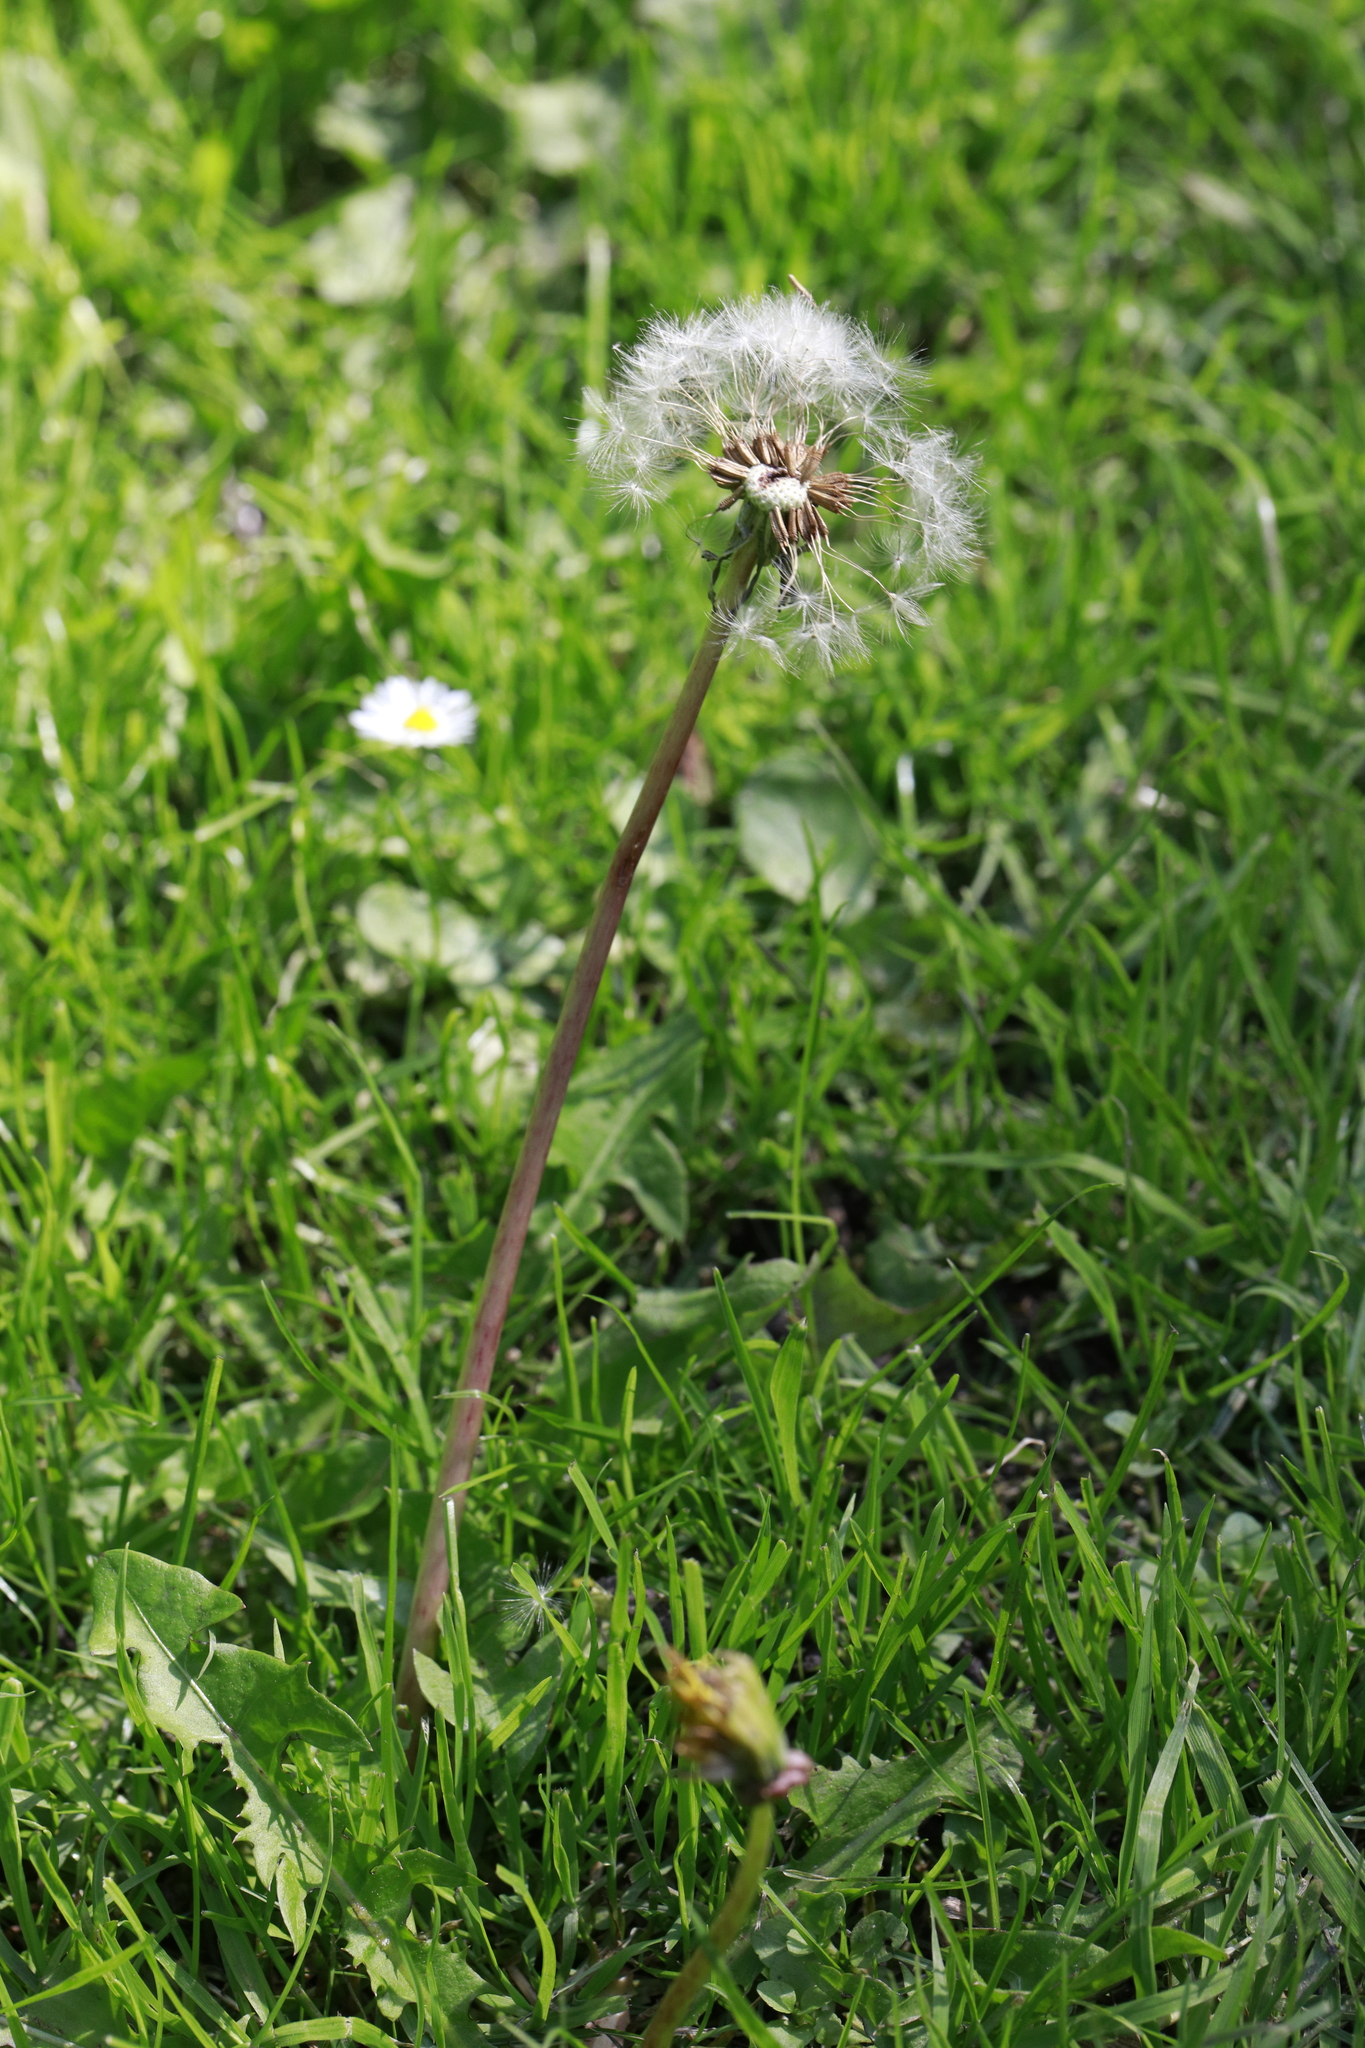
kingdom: Plantae
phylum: Tracheophyta
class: Magnoliopsida
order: Asterales
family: Asteraceae
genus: Taraxacum
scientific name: Taraxacum officinale
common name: Common dandelion
